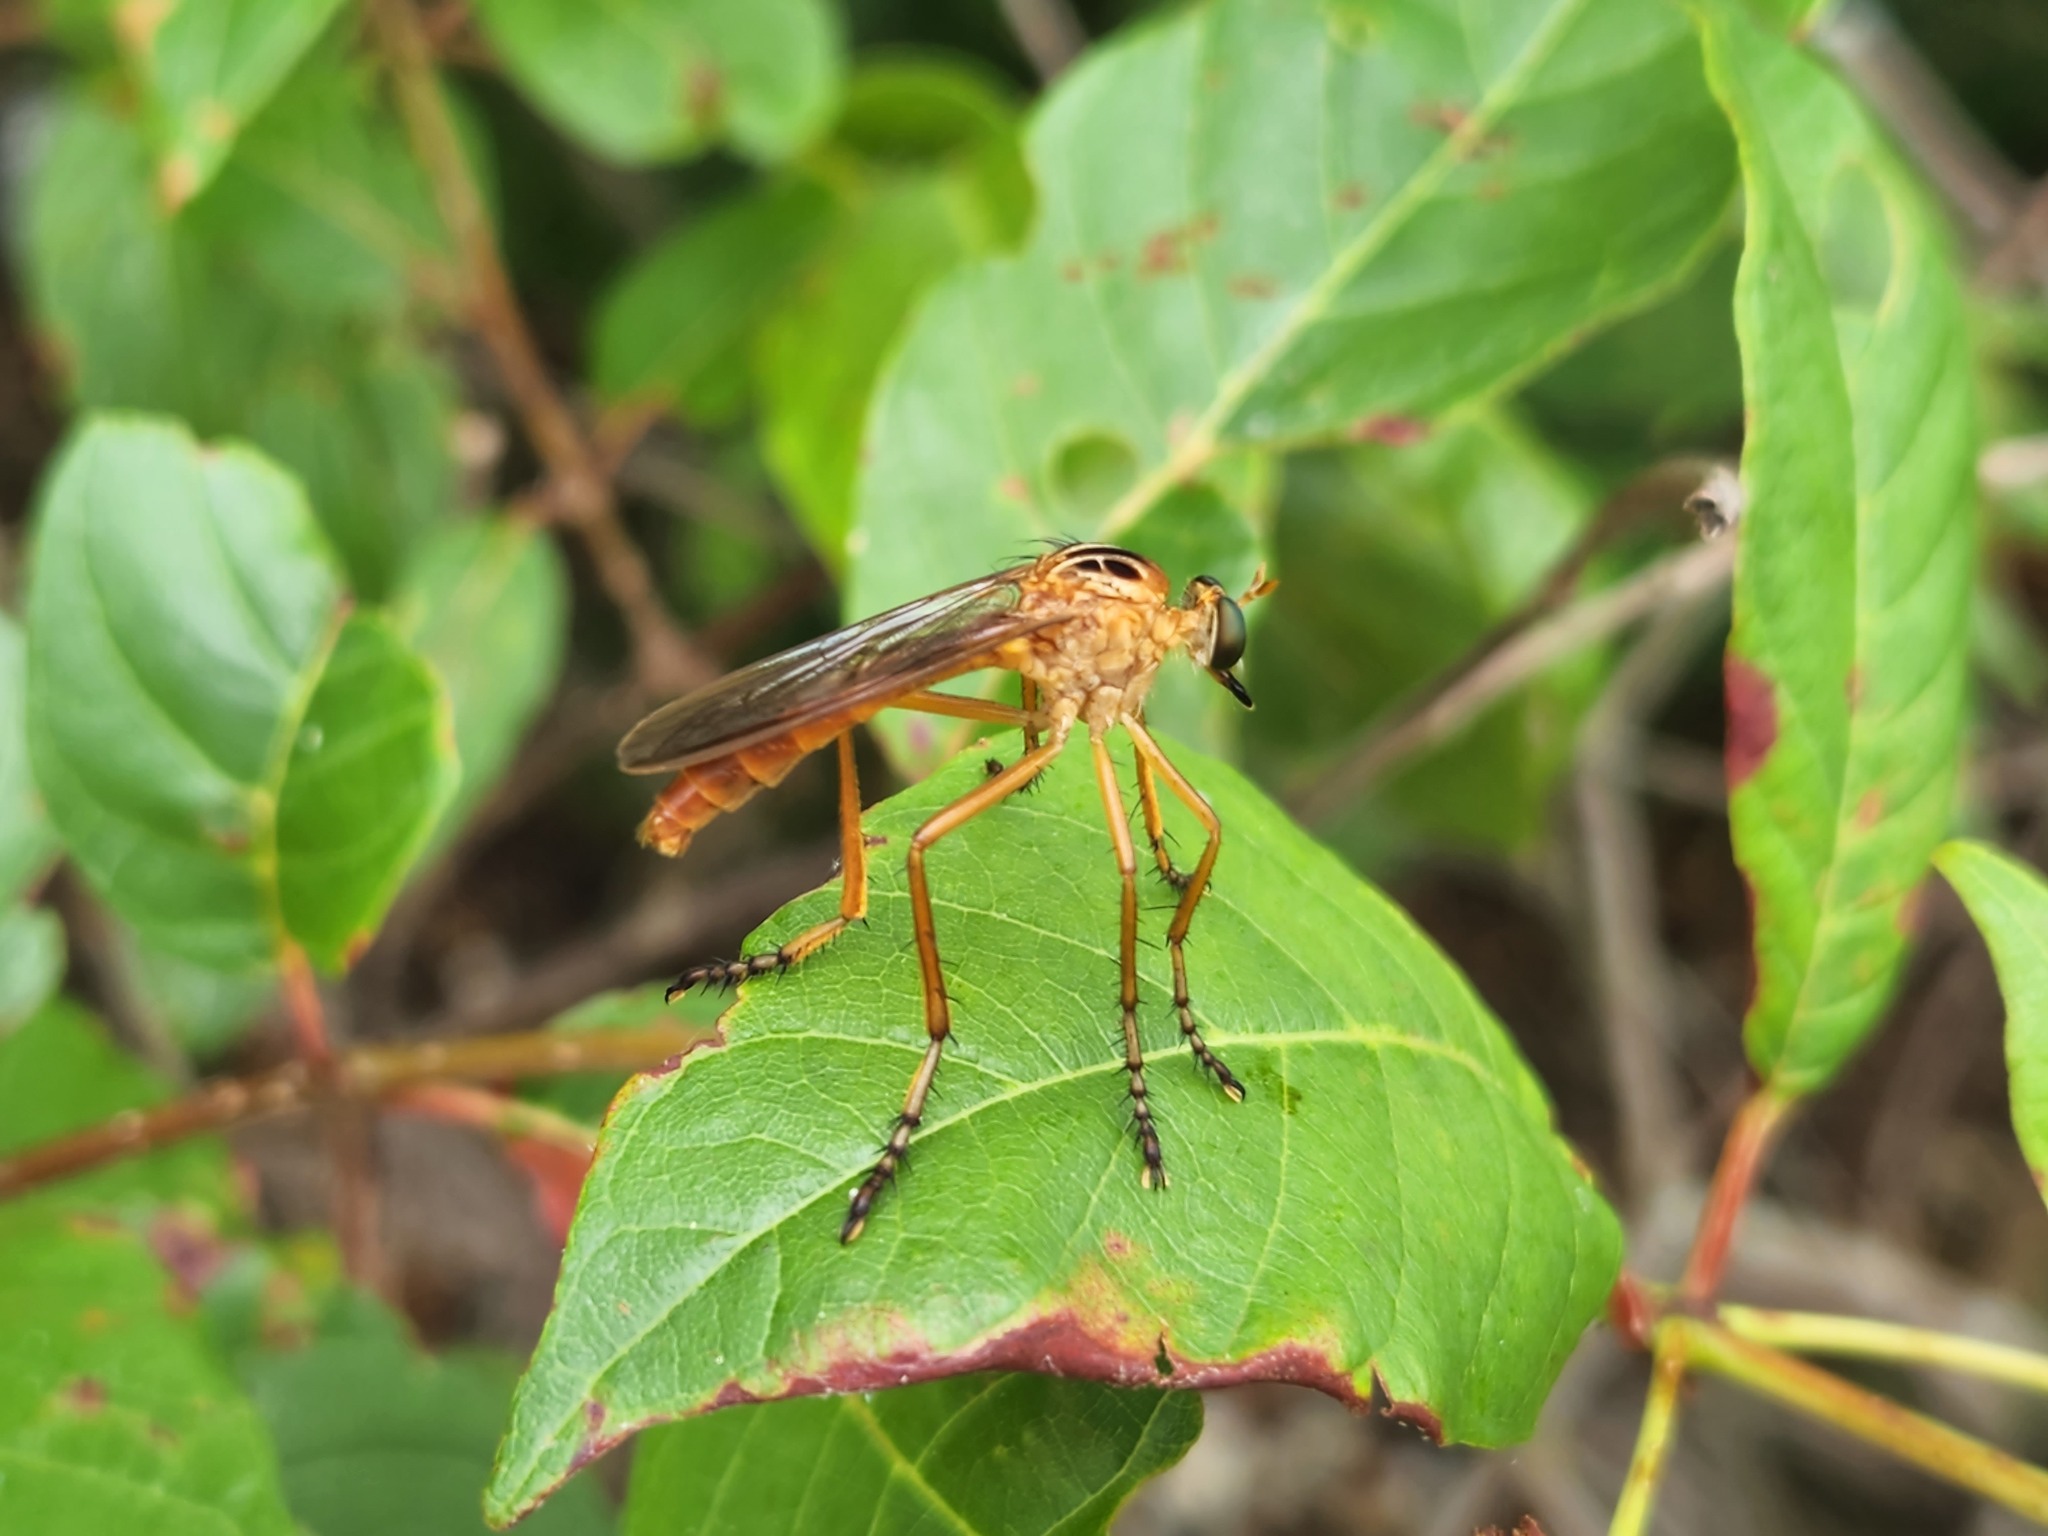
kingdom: Animalia
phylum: Arthropoda
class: Insecta
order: Diptera
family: Asilidae
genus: Diogmites
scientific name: Diogmites neoternatus
